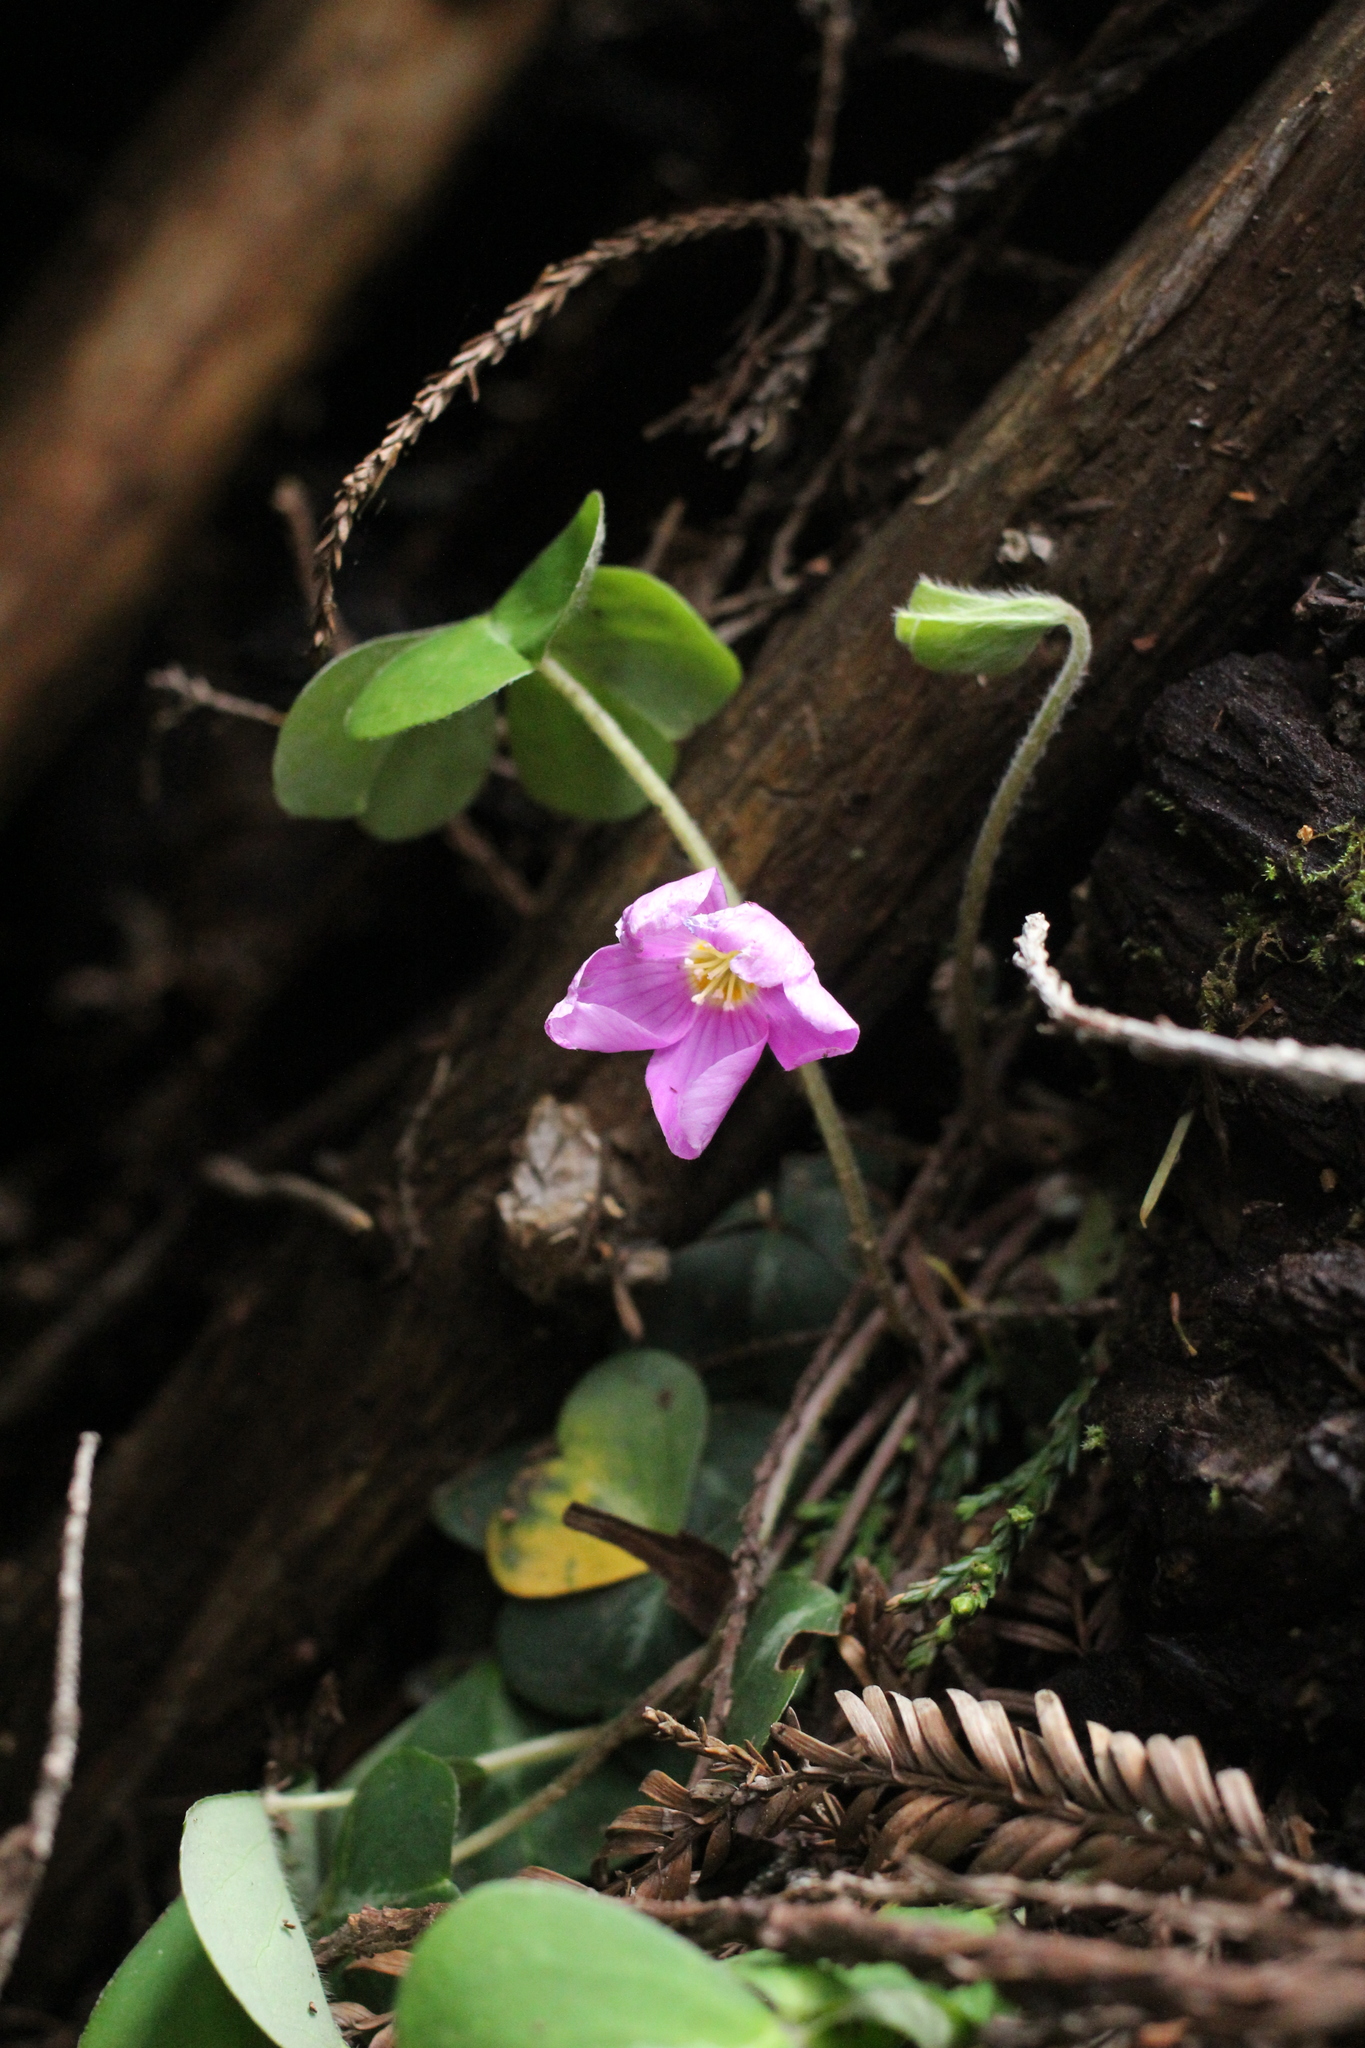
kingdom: Plantae
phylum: Tracheophyta
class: Magnoliopsida
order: Oxalidales
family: Oxalidaceae
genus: Oxalis
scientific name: Oxalis oregana
